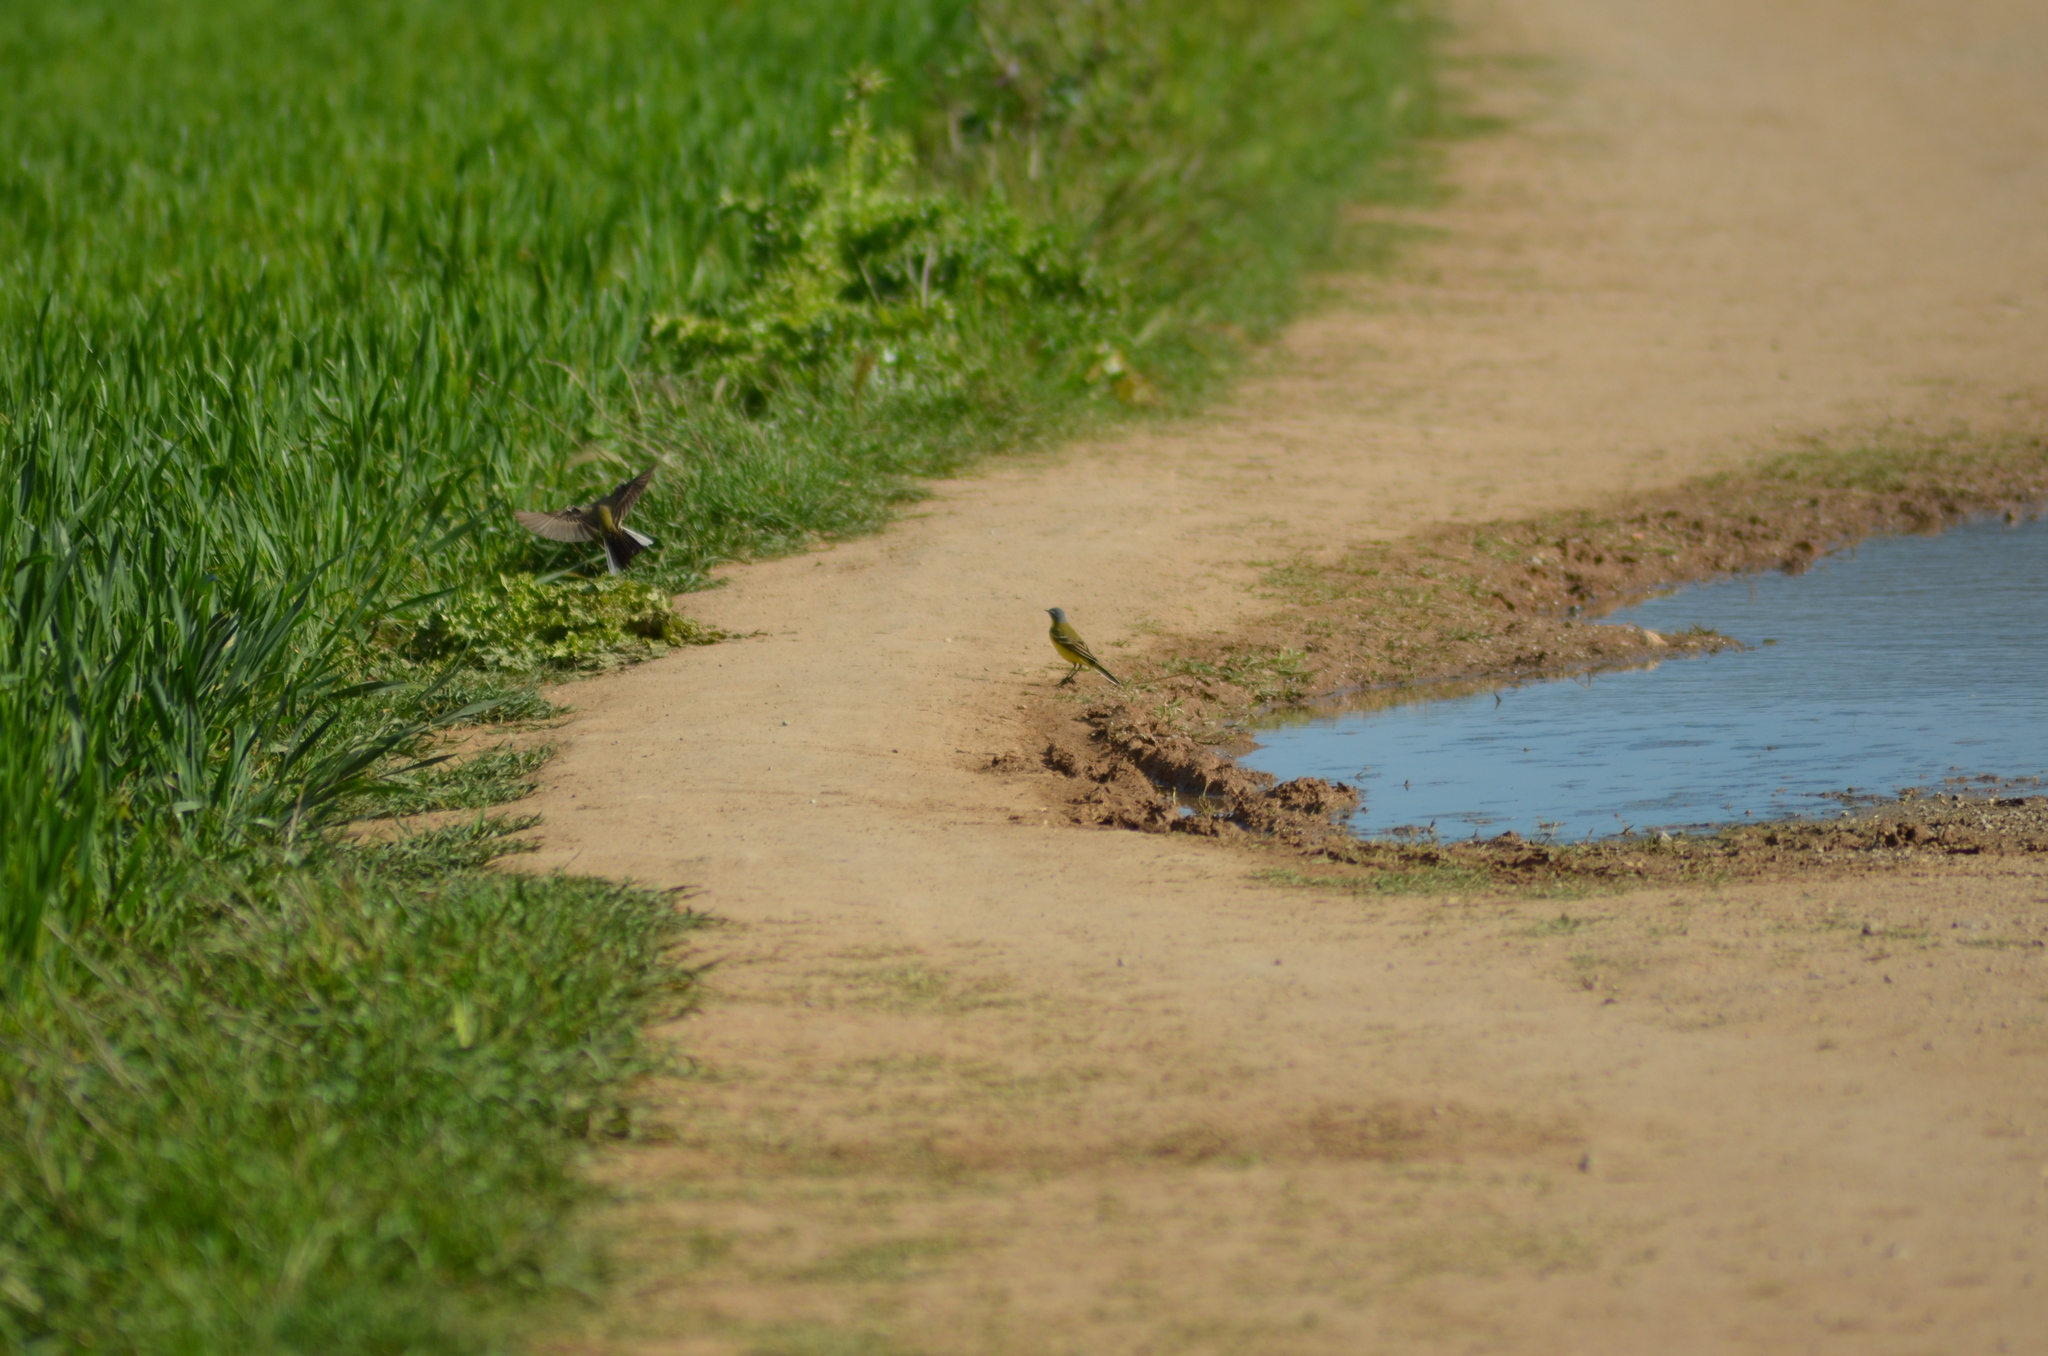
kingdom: Animalia
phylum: Chordata
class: Aves
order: Passeriformes
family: Motacillidae
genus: Motacilla
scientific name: Motacilla flava
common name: Western yellow wagtail
